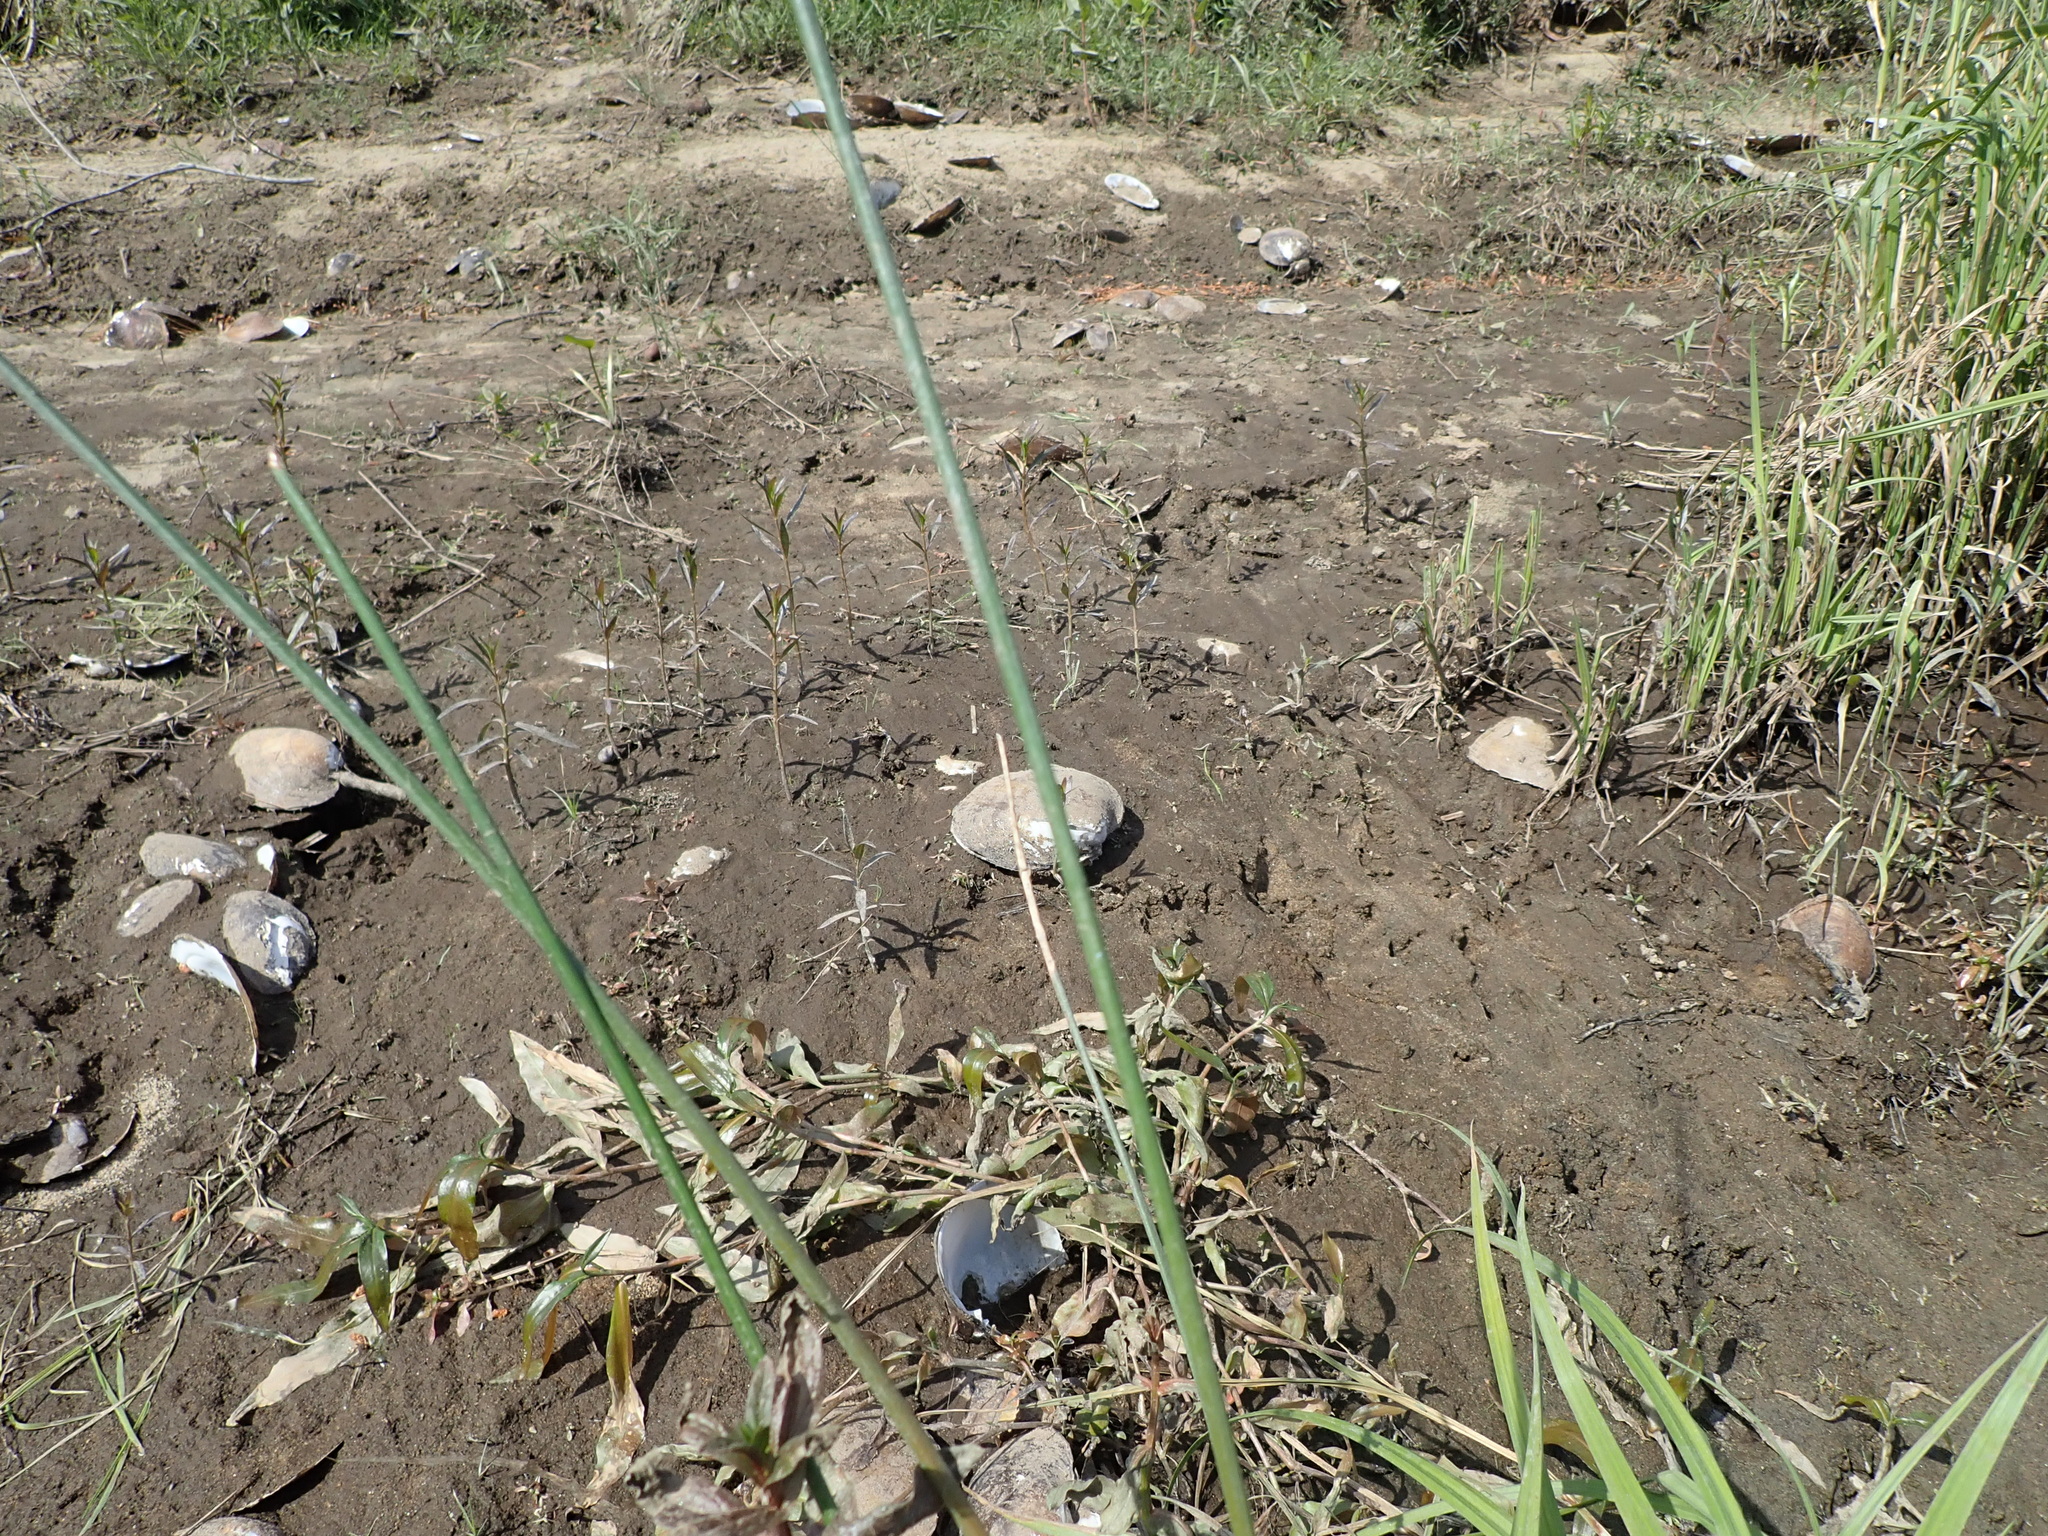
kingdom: Animalia
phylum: Mollusca
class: Bivalvia
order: Unionida
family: Unionidae
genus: Lampsilis
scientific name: Lampsilis cardium
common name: Plain pocketbook
